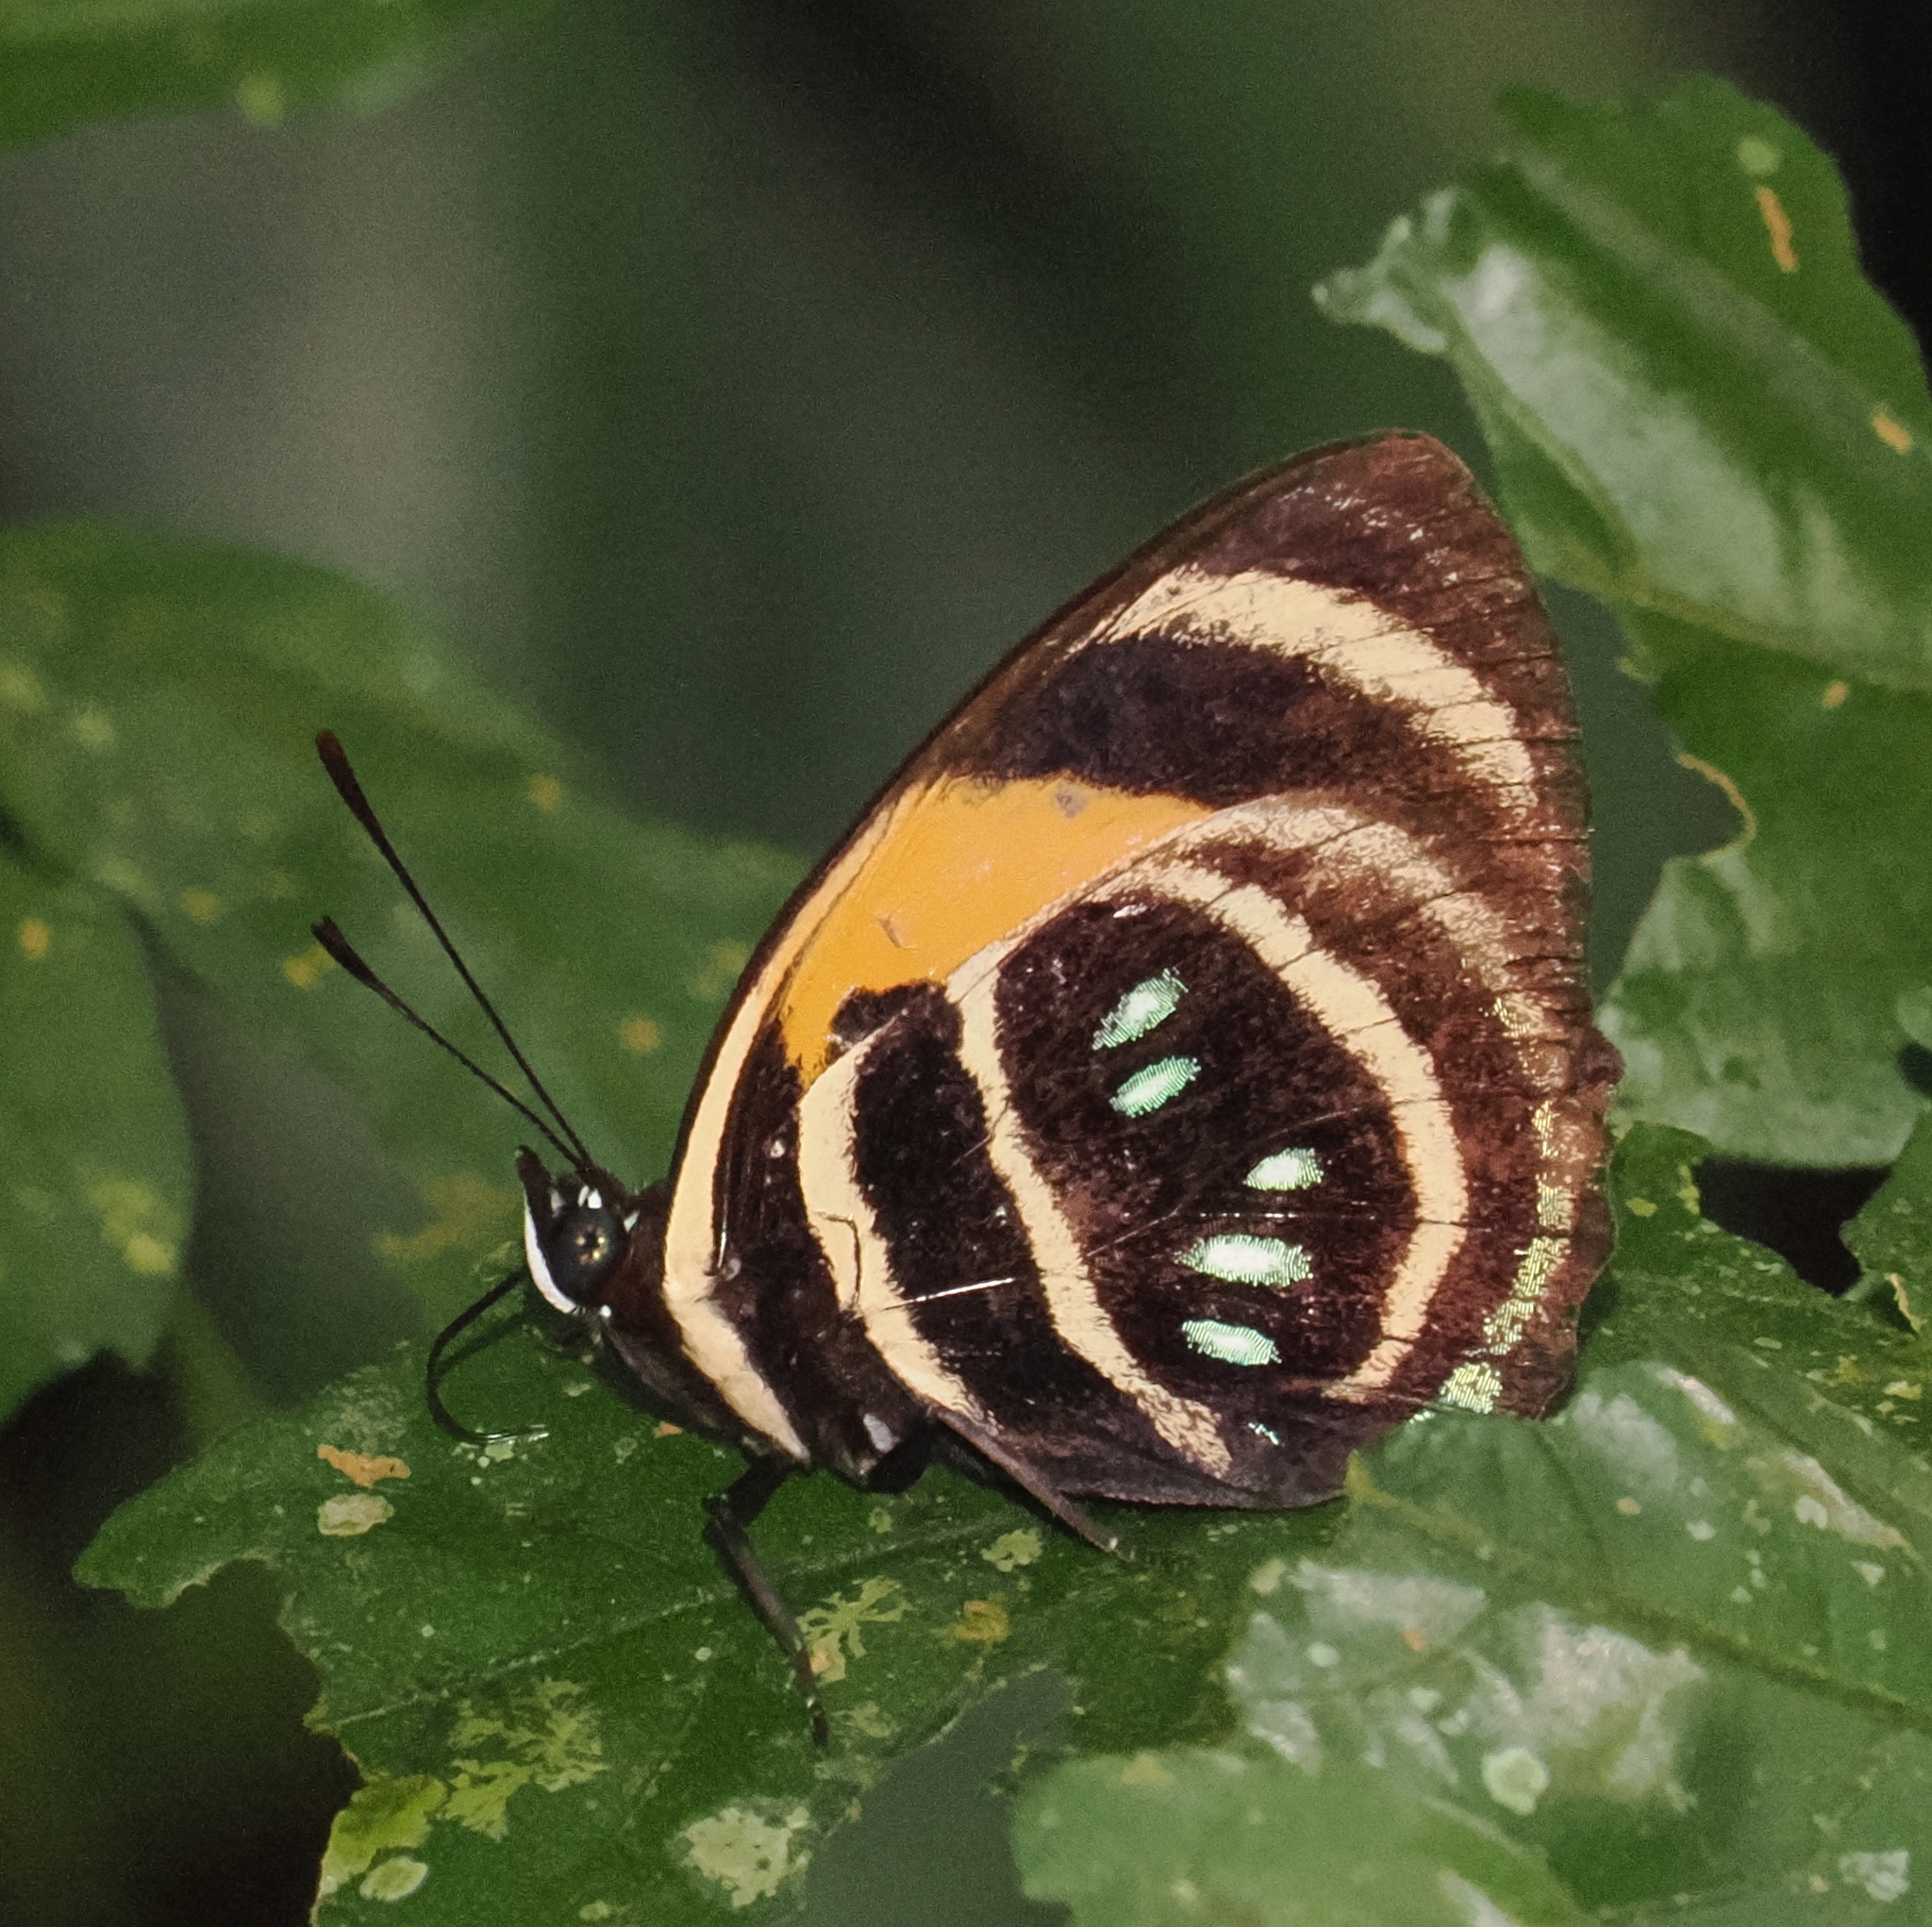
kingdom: Animalia
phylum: Arthropoda
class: Insecta
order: Lepidoptera
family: Nymphalidae
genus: Catagramma
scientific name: Catagramma Callicore lyca
